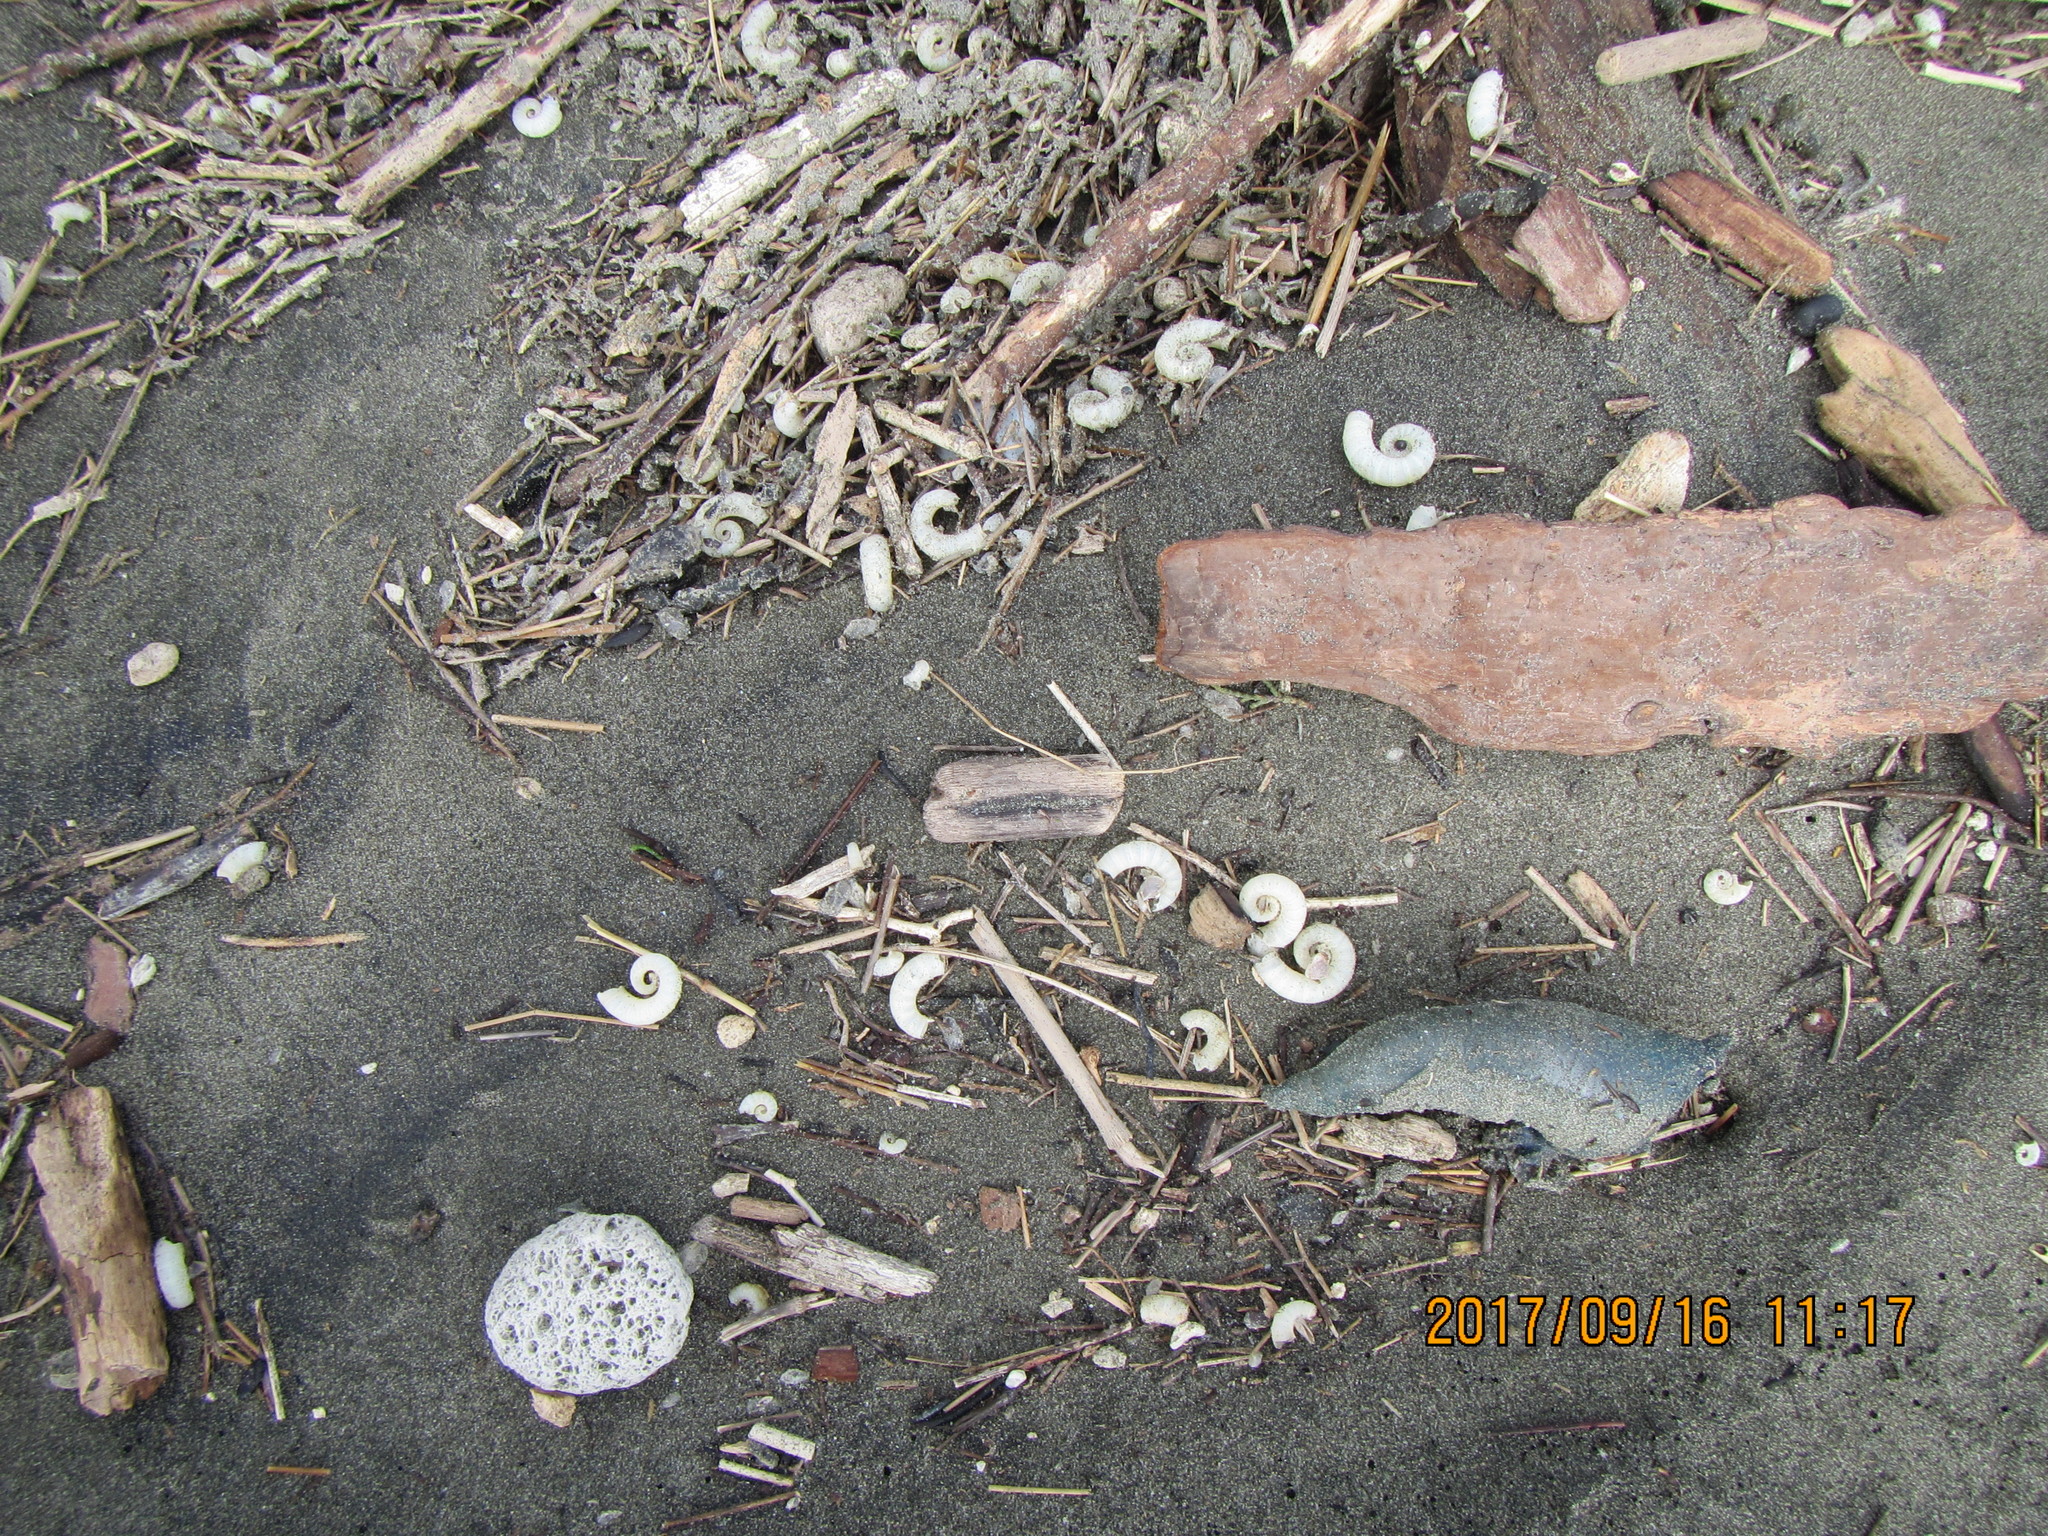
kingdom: Animalia
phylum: Mollusca
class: Cephalopoda
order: Spirulida
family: Spirulidae
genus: Spirula
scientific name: Spirula spirula
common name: Ram's horn squid
